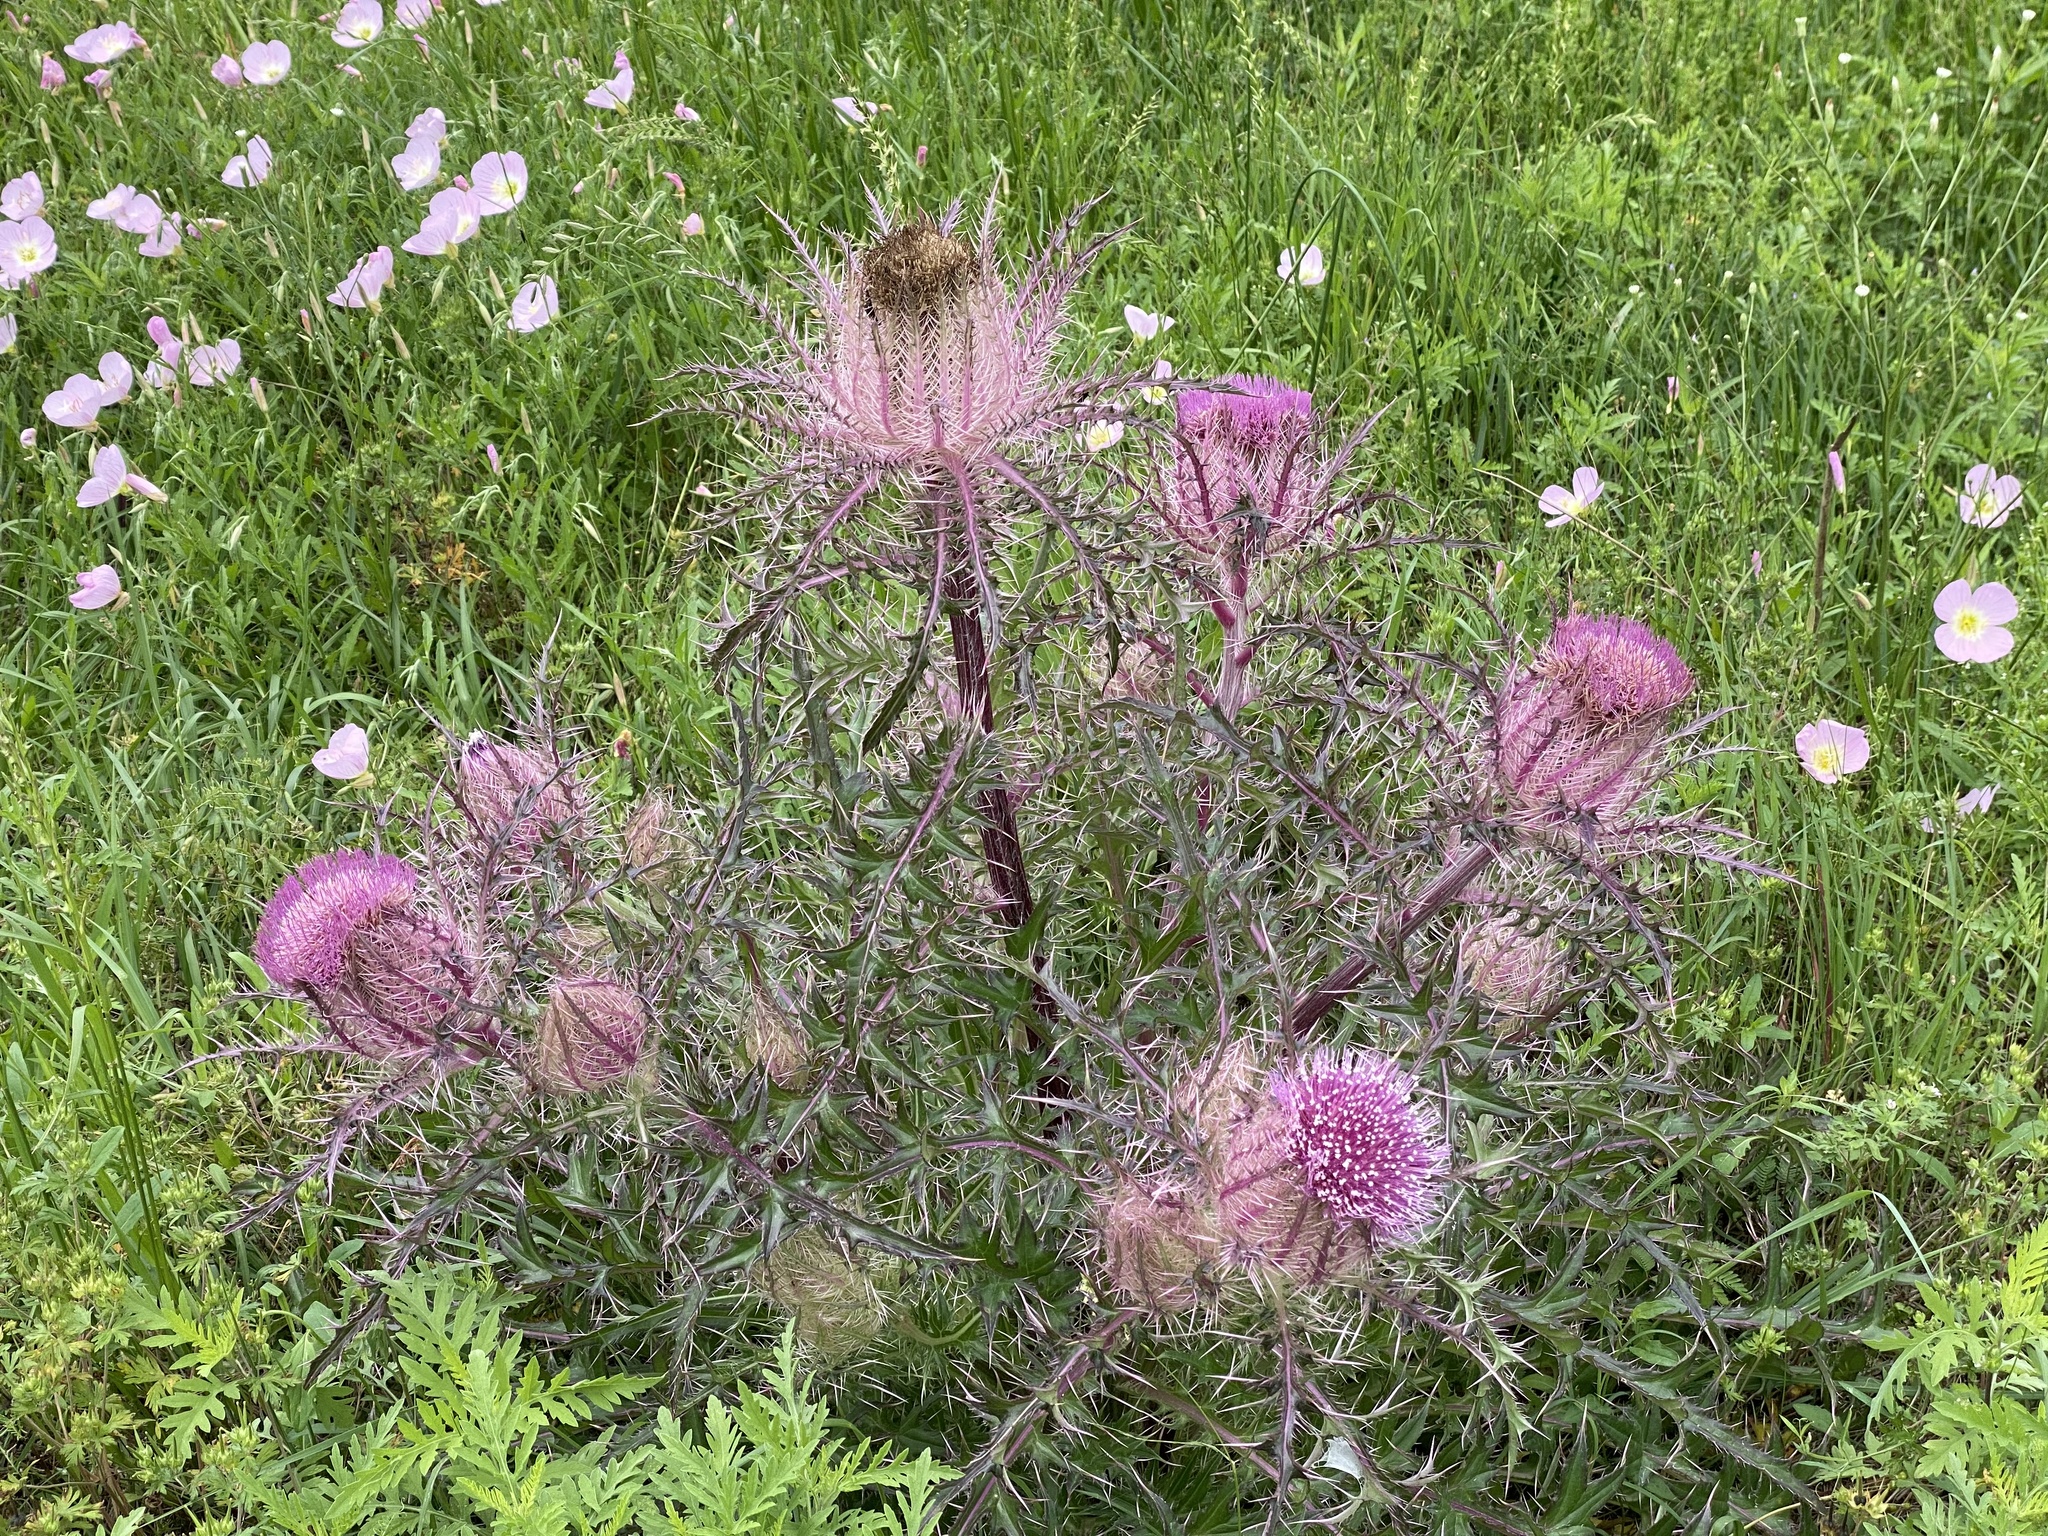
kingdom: Plantae
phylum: Tracheophyta
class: Magnoliopsida
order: Asterales
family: Asteraceae
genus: Cirsium
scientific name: Cirsium horridulum
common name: Bristly thistle
